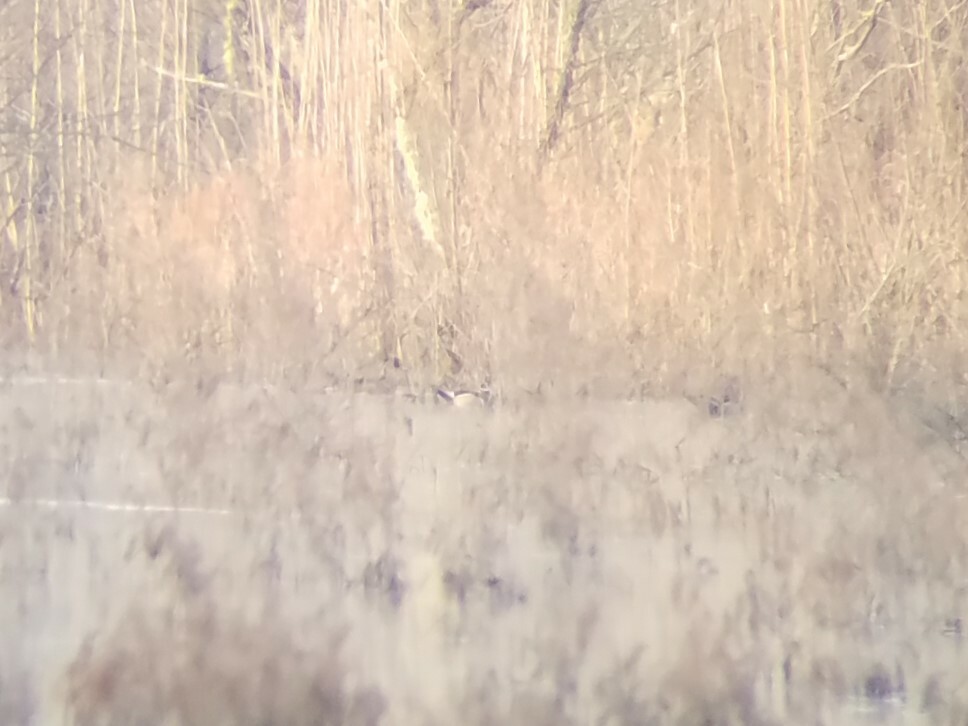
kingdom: Animalia
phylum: Chordata
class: Aves
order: Anseriformes
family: Anatidae
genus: Aix
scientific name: Aix sponsa
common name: Wood duck
